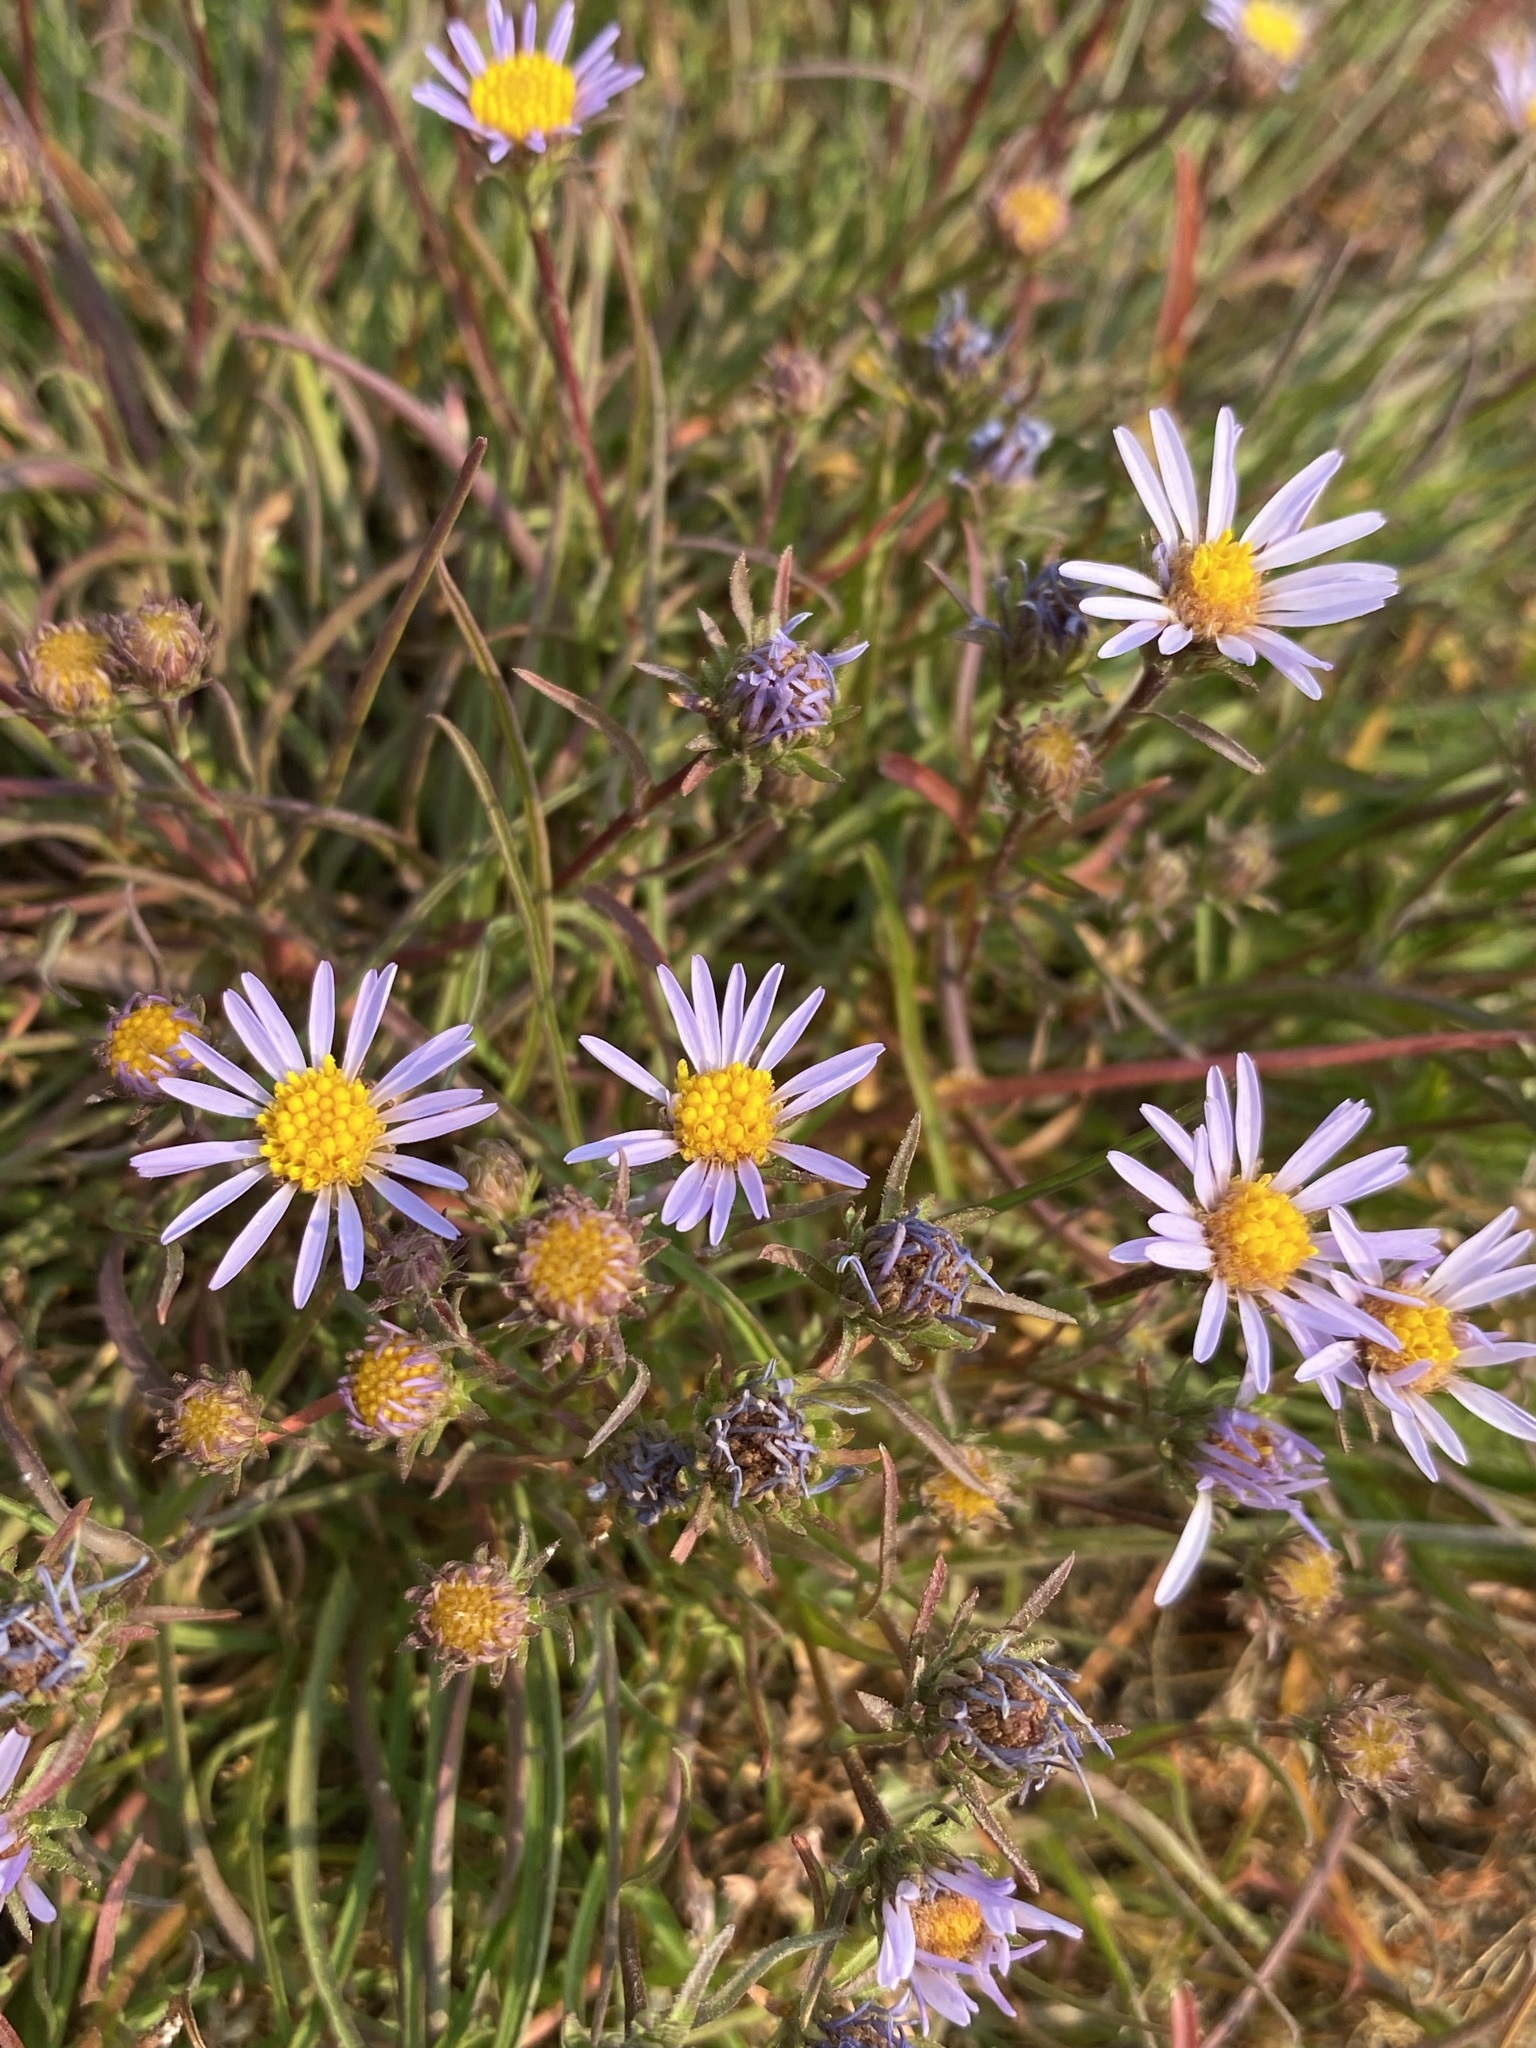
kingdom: Plantae
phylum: Tracheophyta
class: Magnoliopsida
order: Asterales
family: Asteraceae
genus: Oreostemma
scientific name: Oreostemma alpigenum
